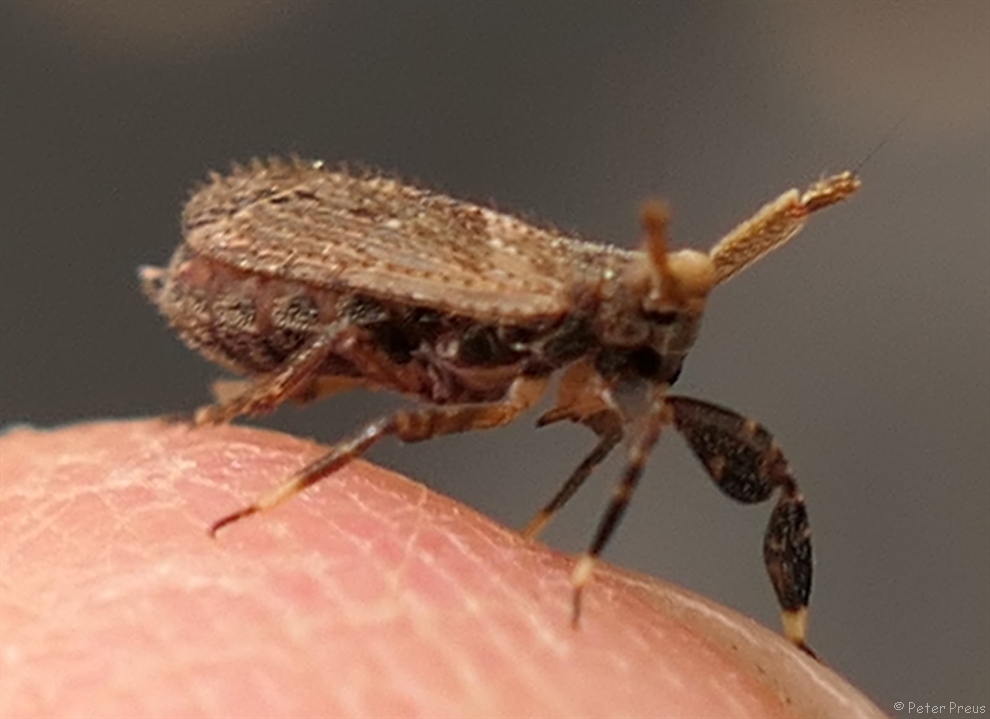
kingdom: Animalia
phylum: Arthropoda
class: Insecta
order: Hemiptera
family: Delphacidae
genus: Asiraca
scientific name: Asiraca clavicornis
